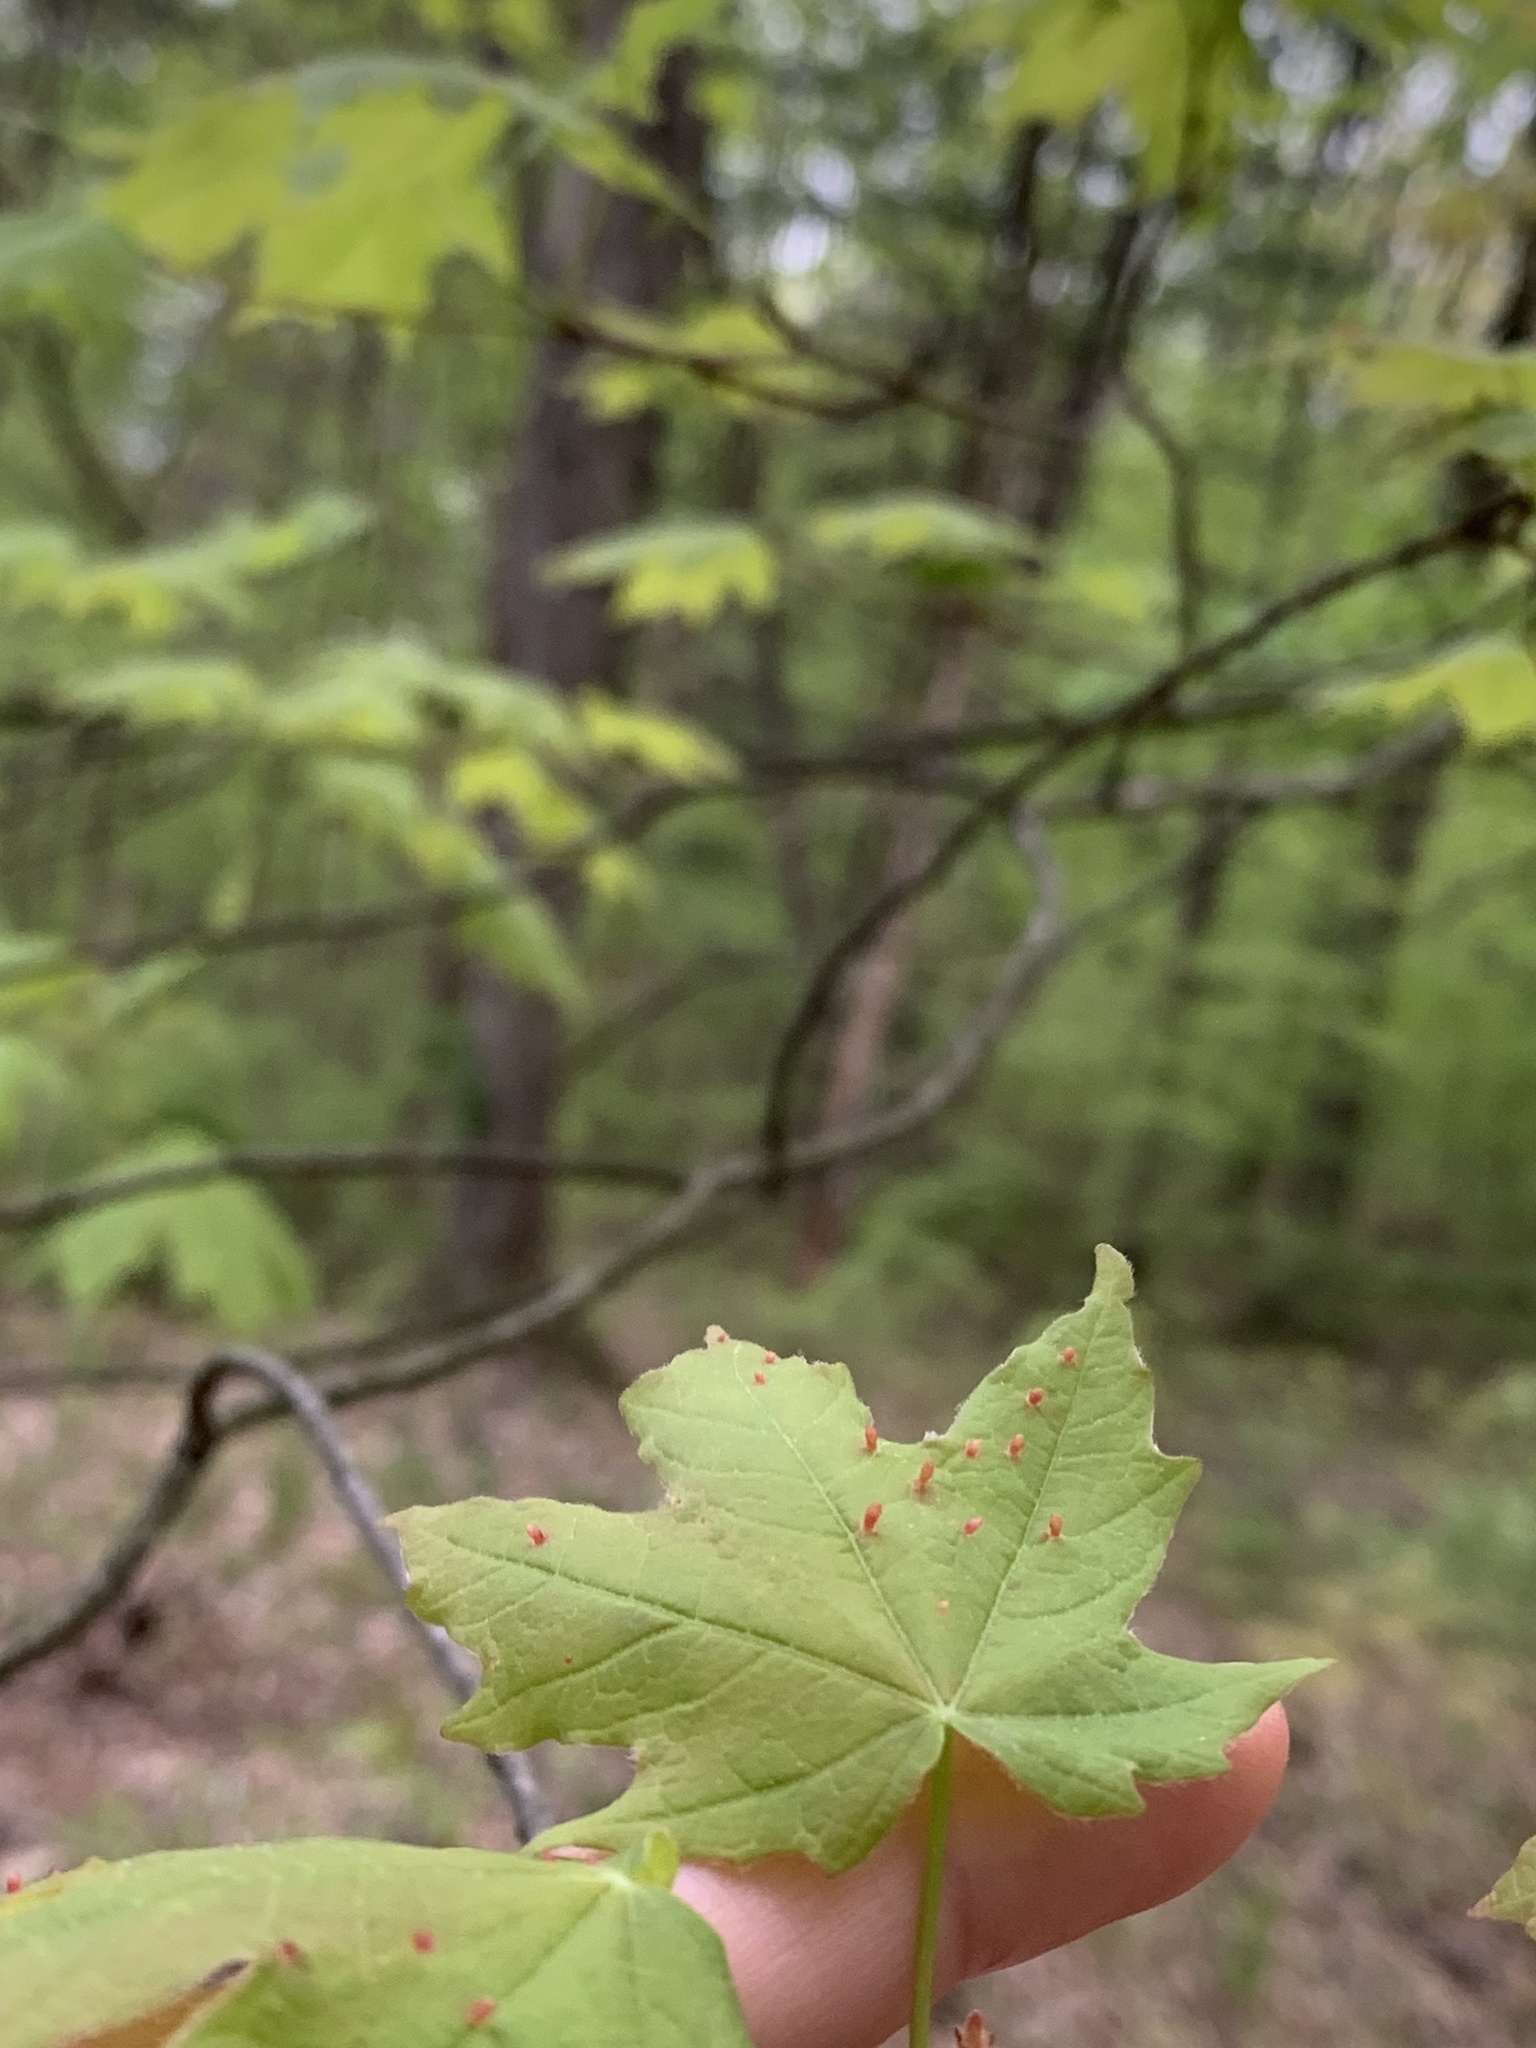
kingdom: Animalia
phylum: Arthropoda
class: Arachnida
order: Trombidiformes
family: Eriophyidae
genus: Vasates
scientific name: Vasates aceriscrumena
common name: Maple spindle gall mite
